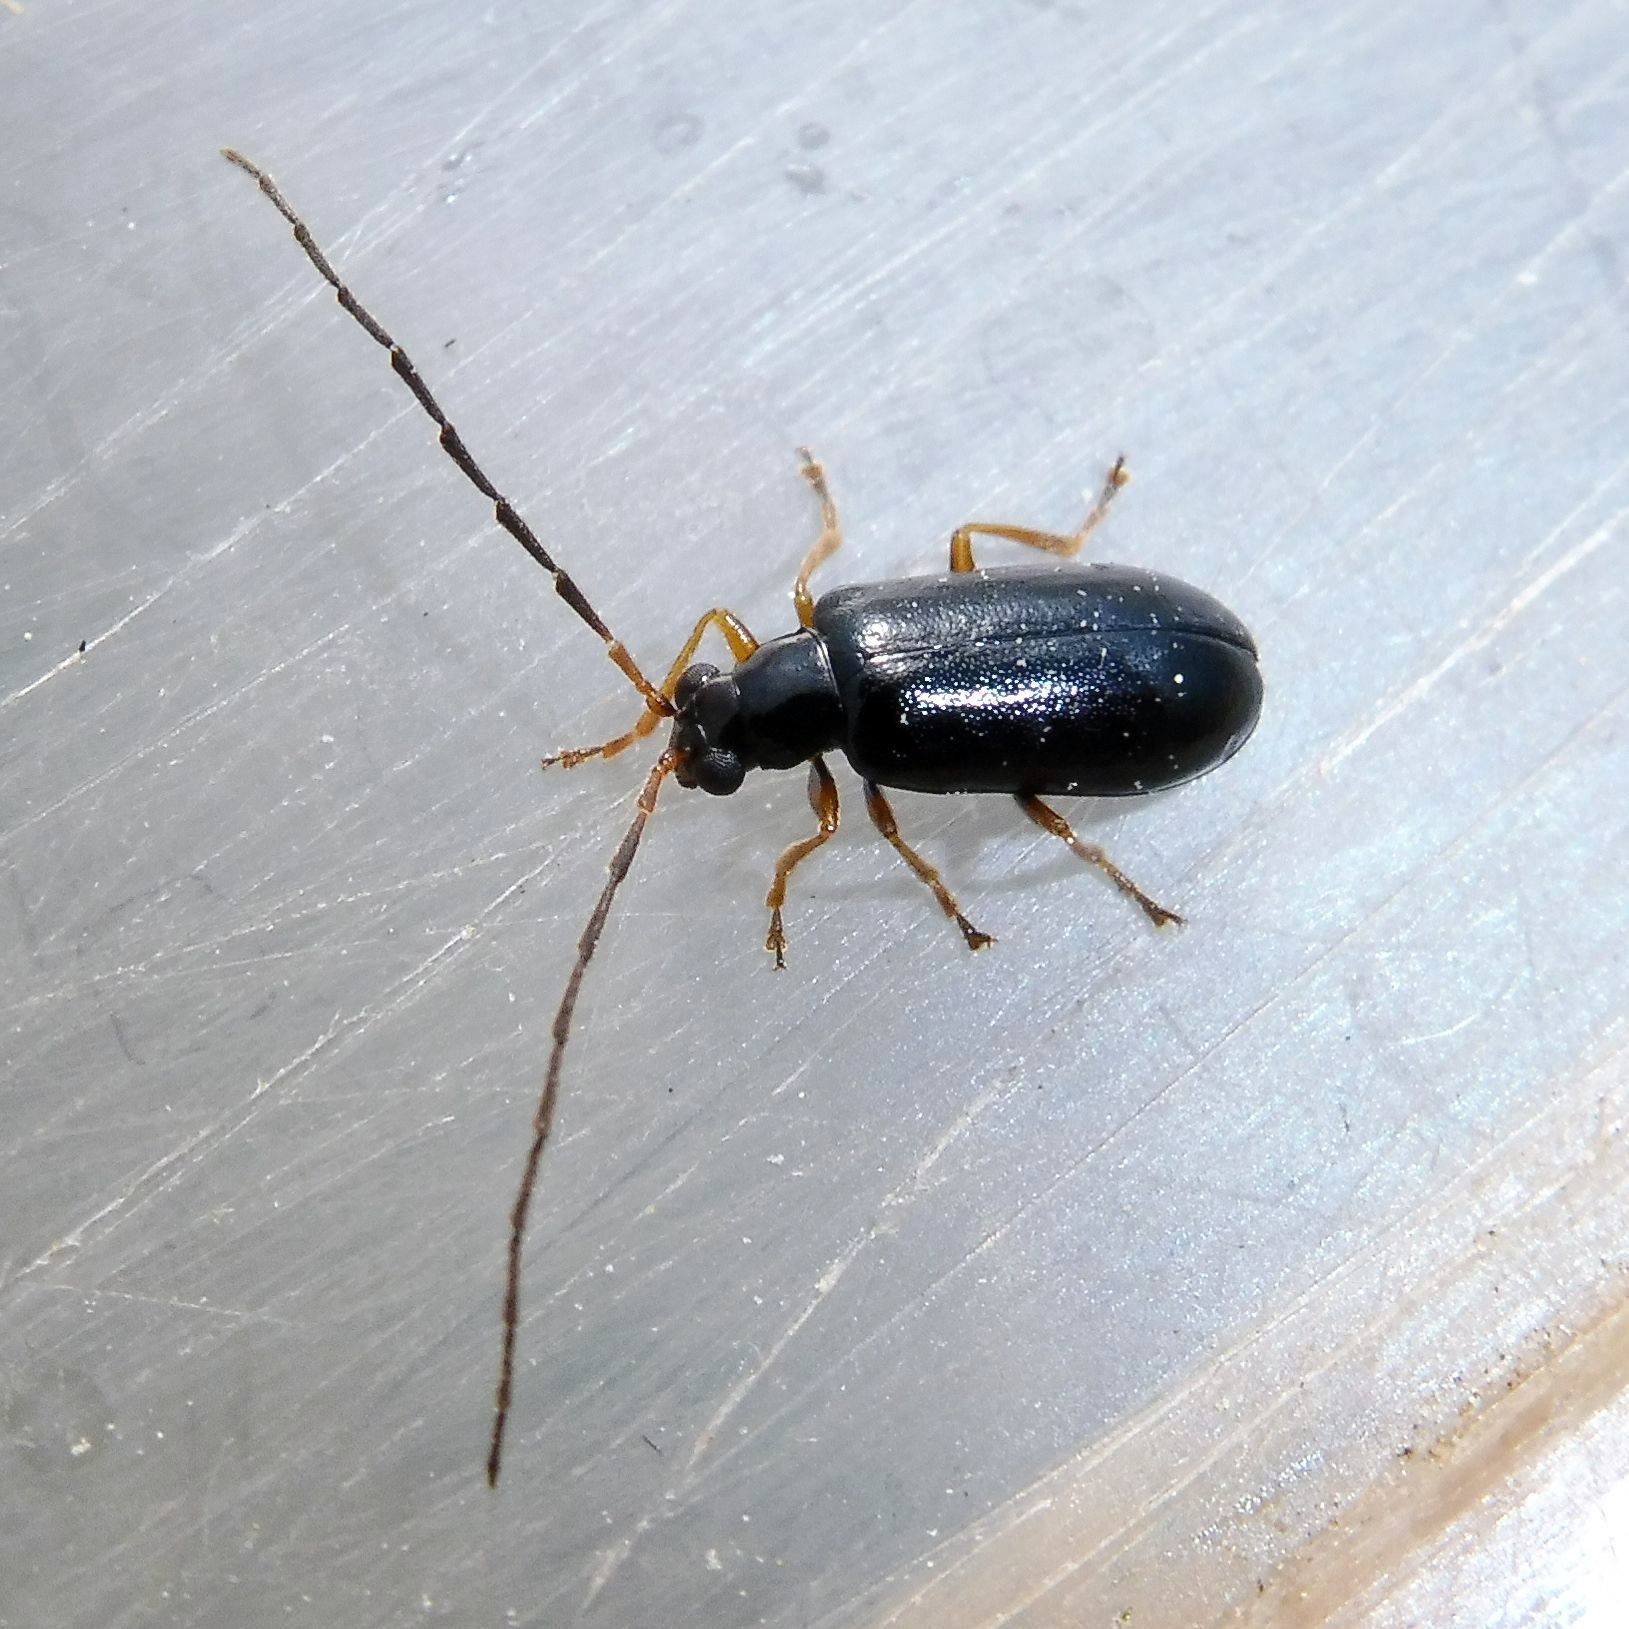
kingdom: Animalia
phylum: Arthropoda
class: Insecta
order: Coleoptera
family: Chrysomelidae
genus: Luperus
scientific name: Luperus longicornis
